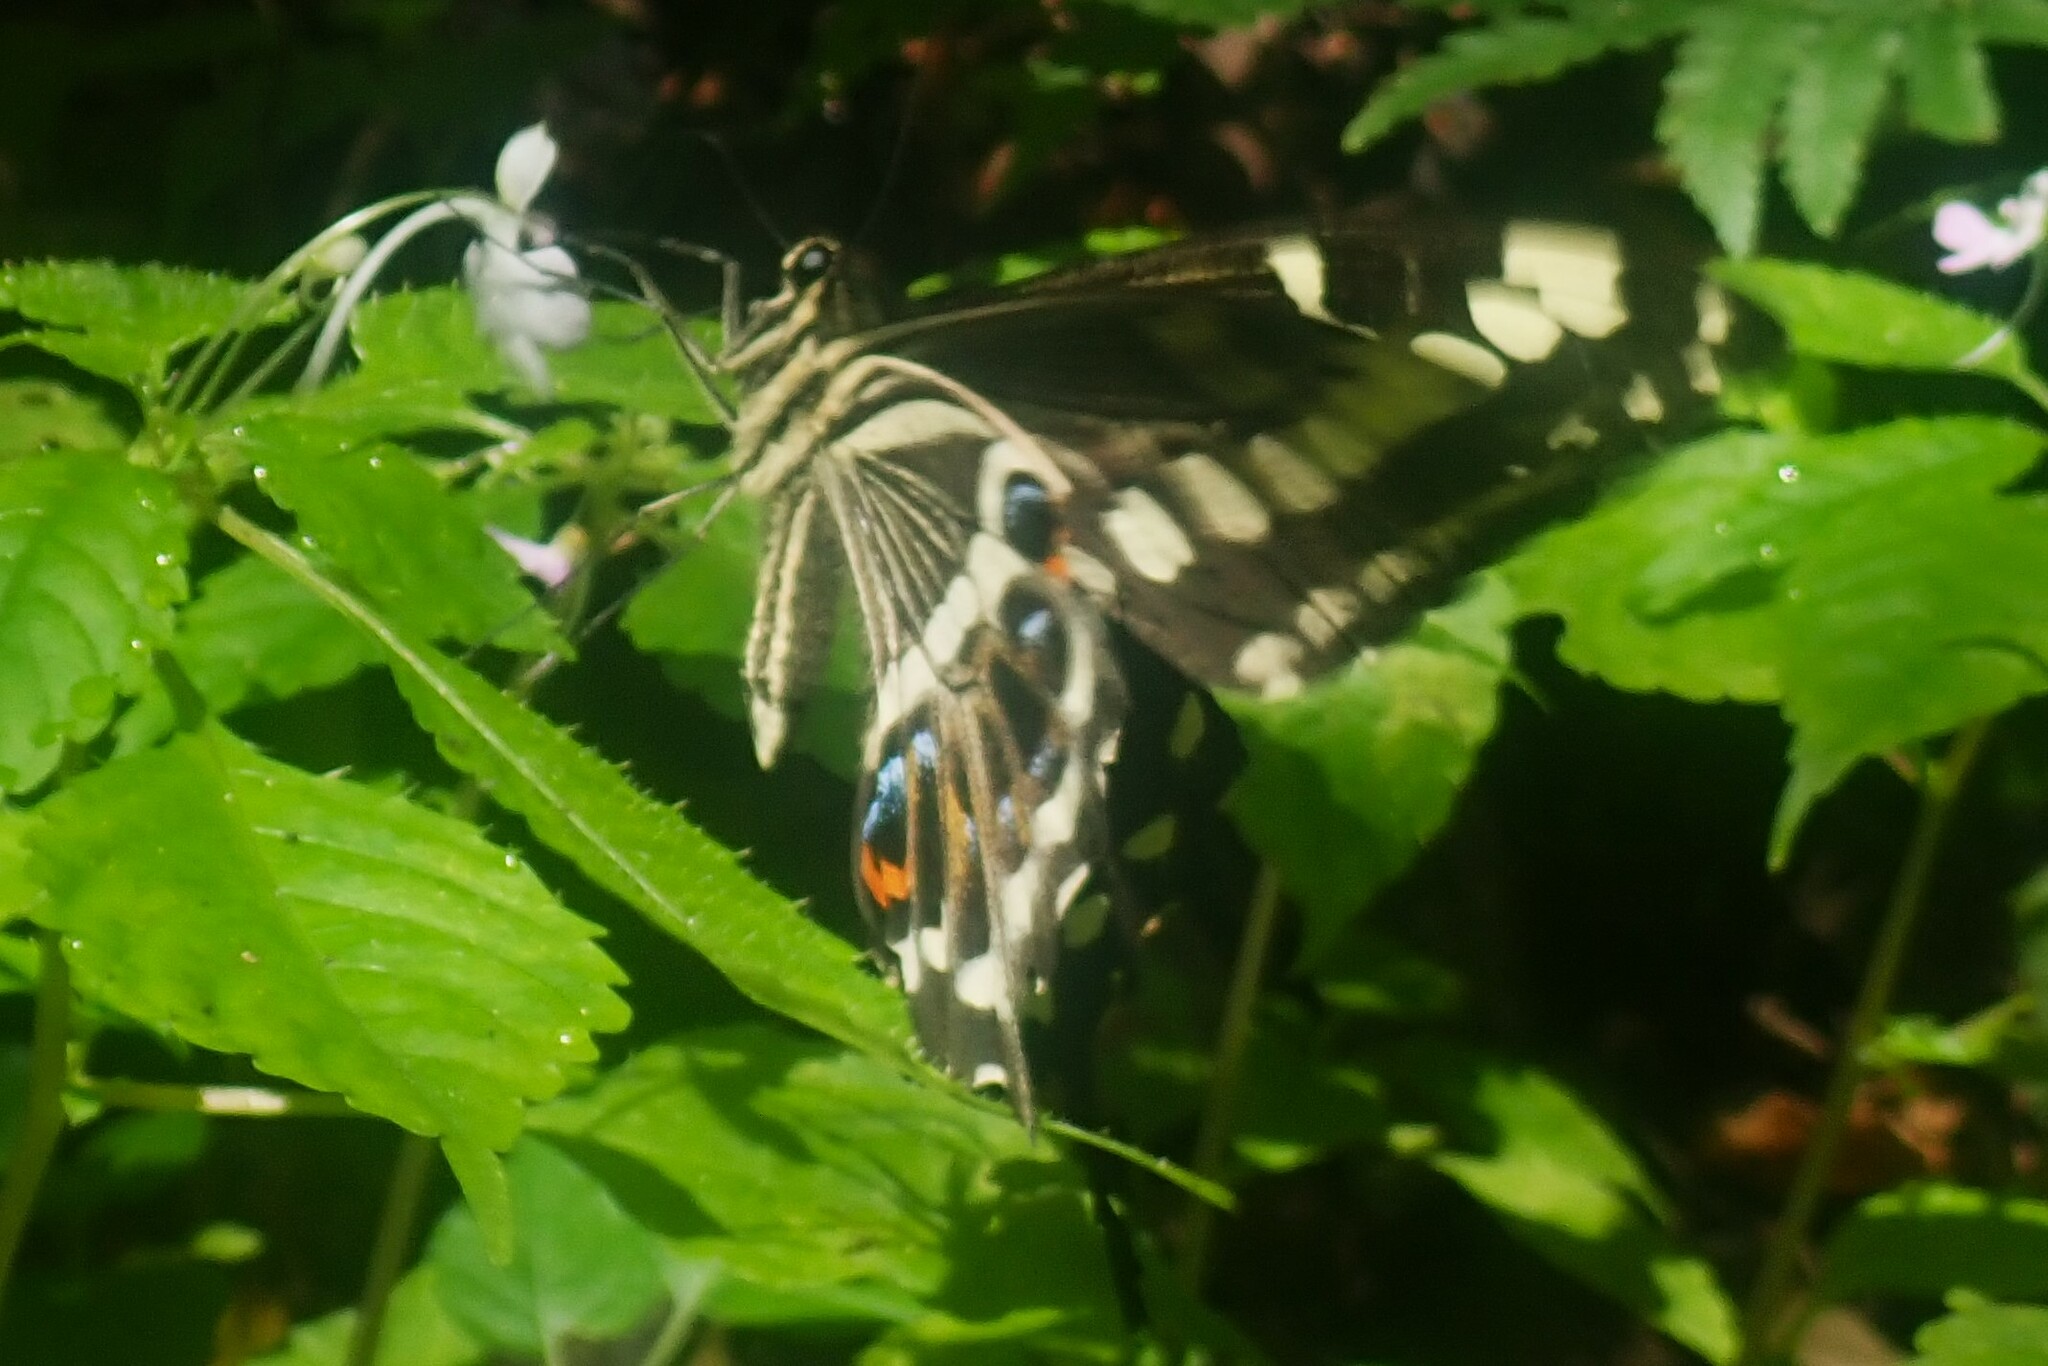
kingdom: Animalia
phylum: Arthropoda
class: Insecta
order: Lepidoptera
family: Papilionidae
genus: Papilio
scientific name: Papilio ophidicephalus
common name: Emperor swallowtail
